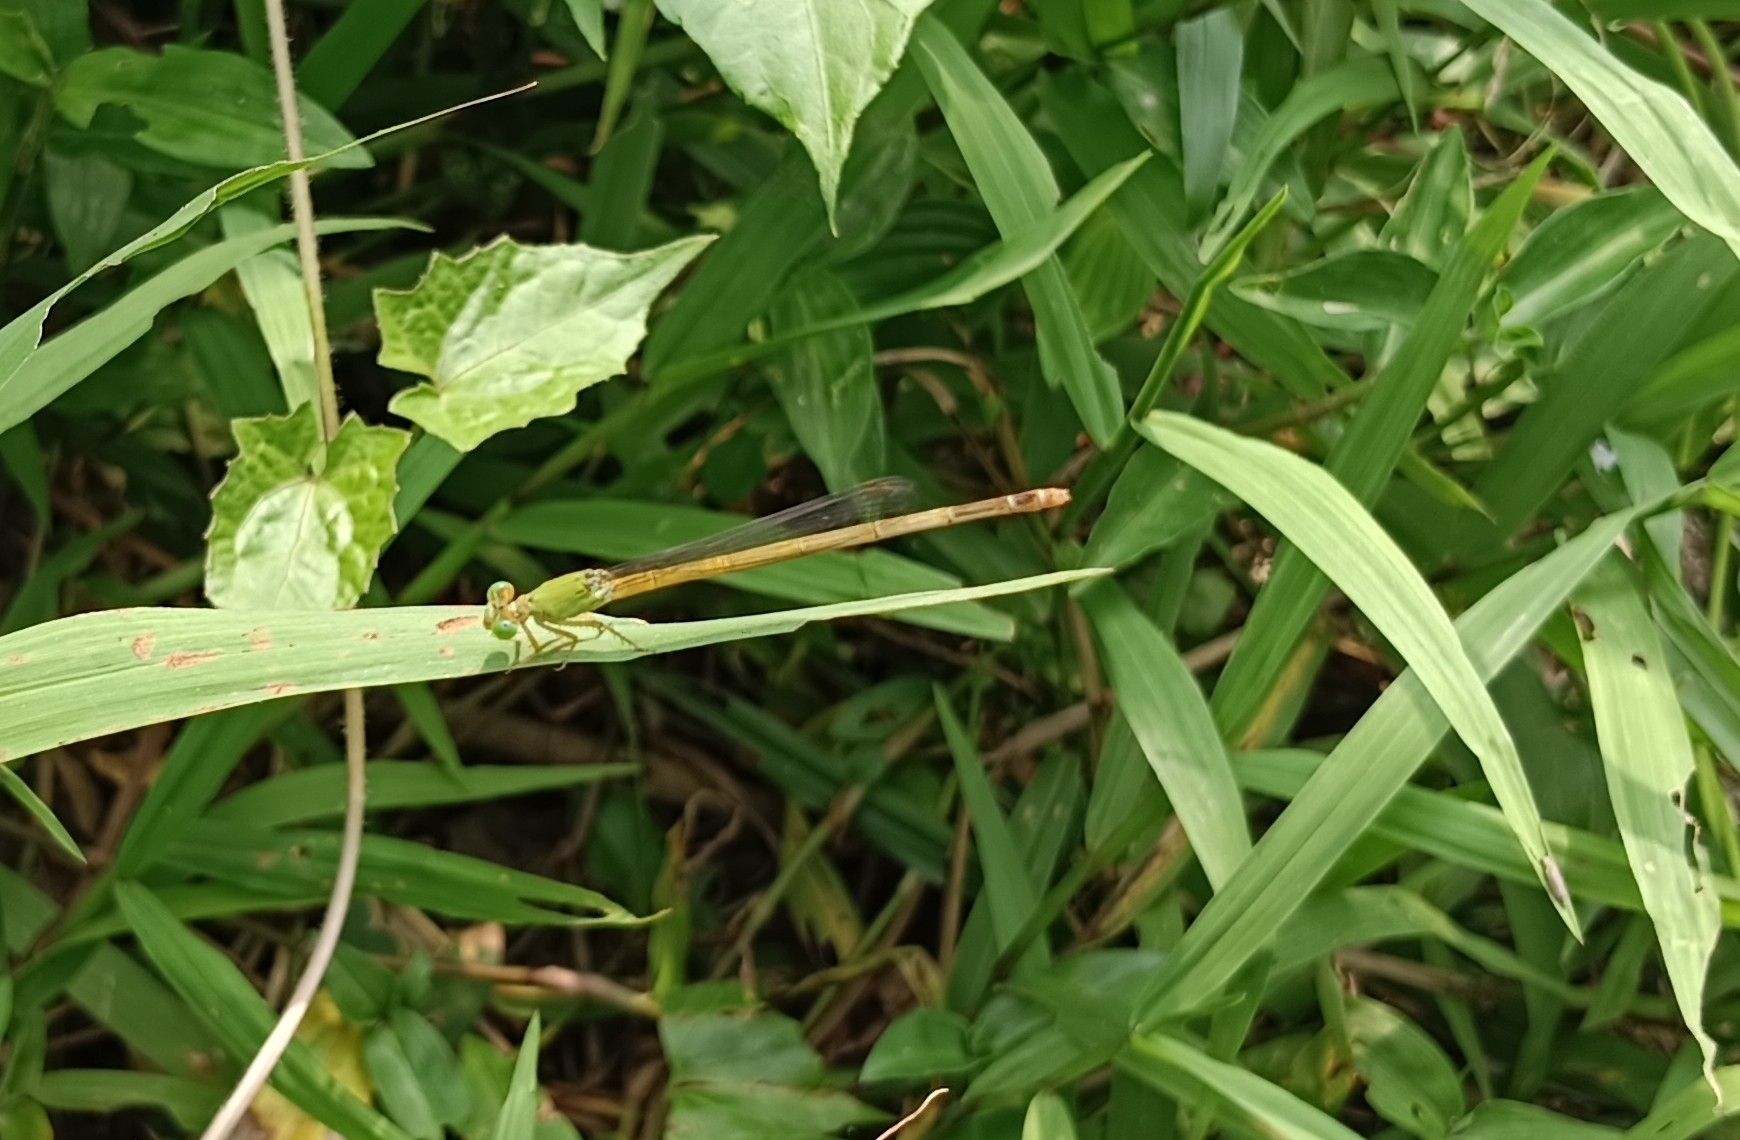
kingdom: Animalia
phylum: Arthropoda
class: Insecta
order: Odonata
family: Coenagrionidae
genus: Ceriagrion
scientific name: Ceriagrion coromandelianum
